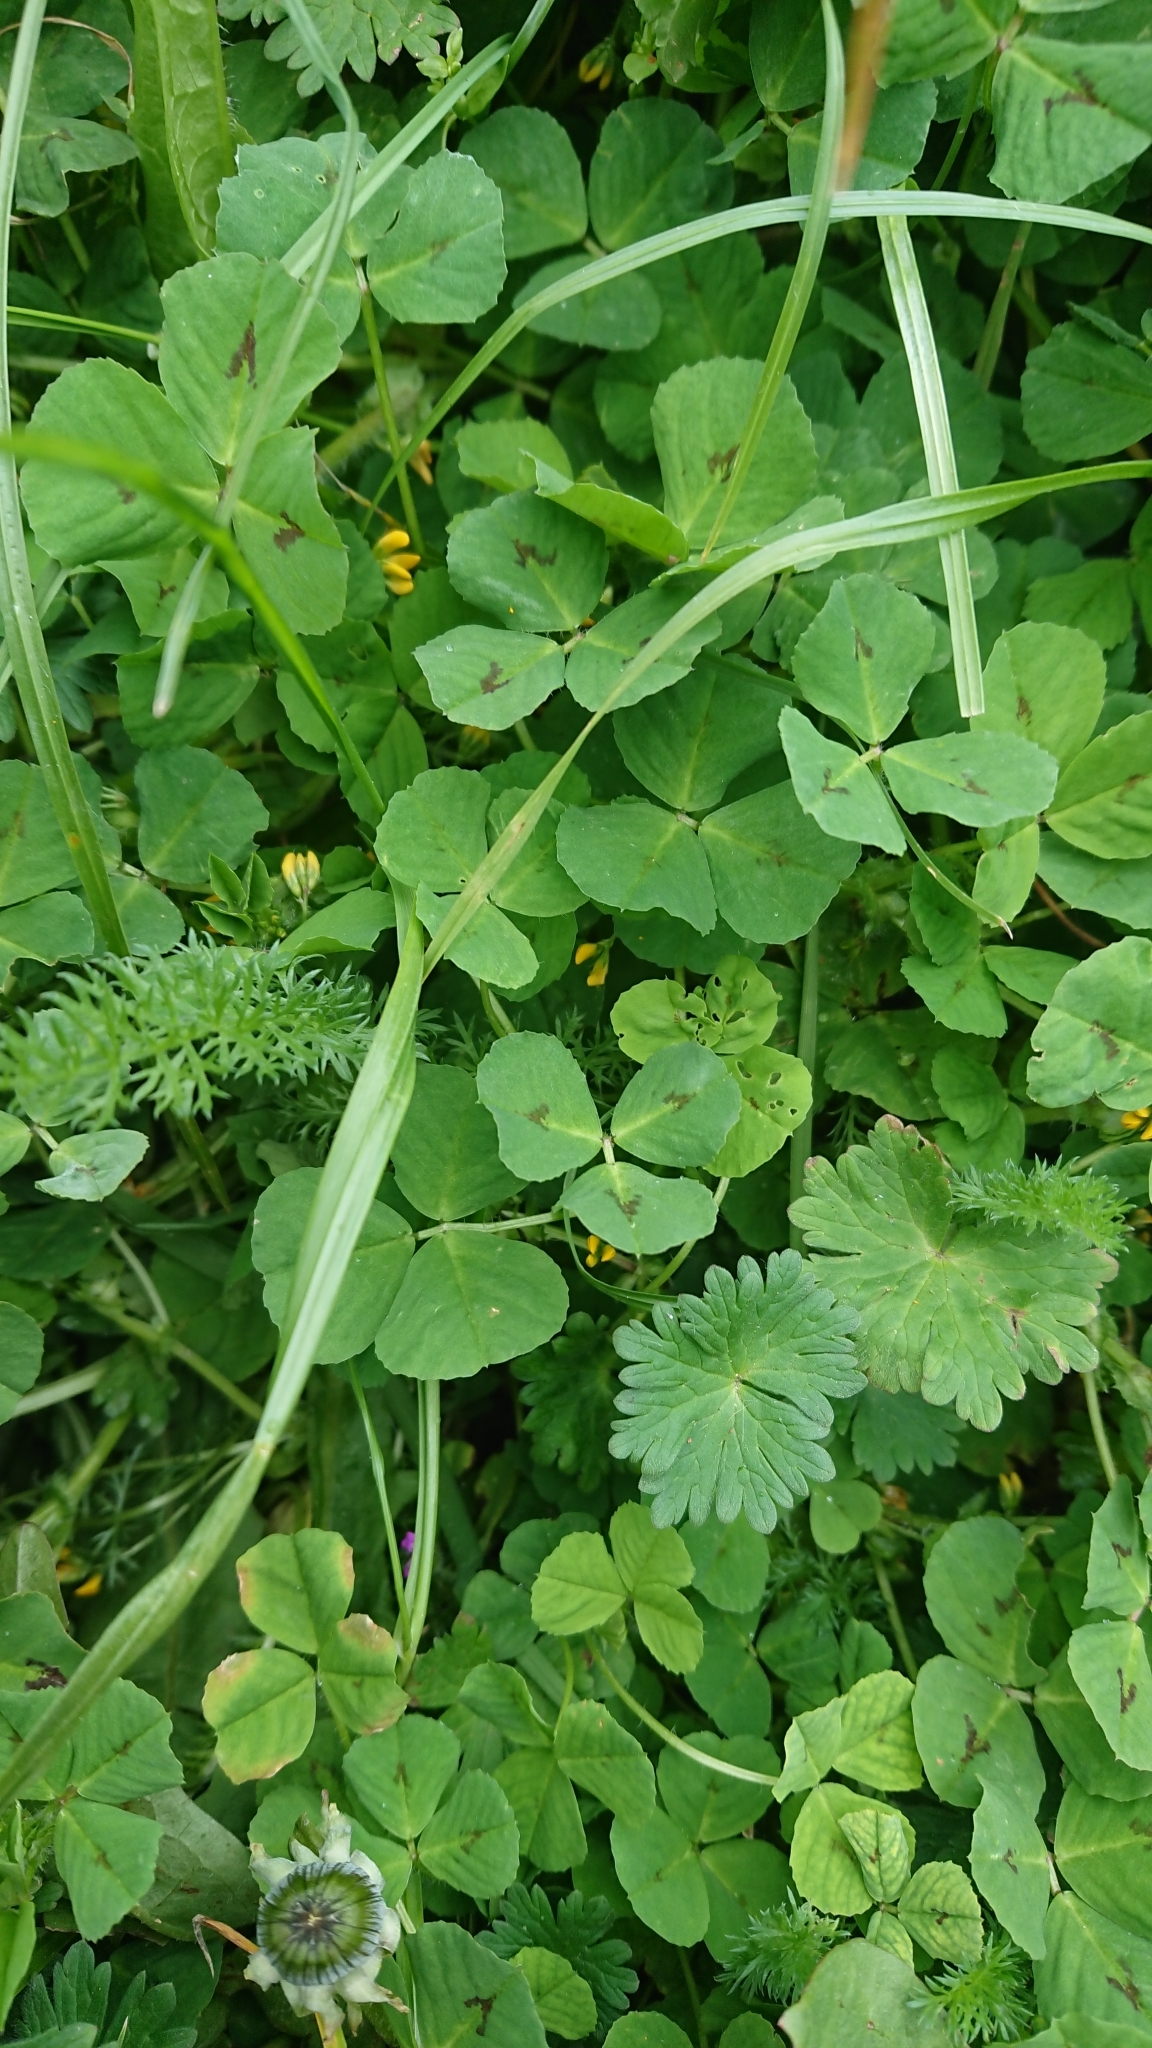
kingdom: Plantae
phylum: Tracheophyta
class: Magnoliopsida
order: Asterales
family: Asteraceae
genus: Achillea
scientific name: Achillea millefolium
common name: Yarrow
